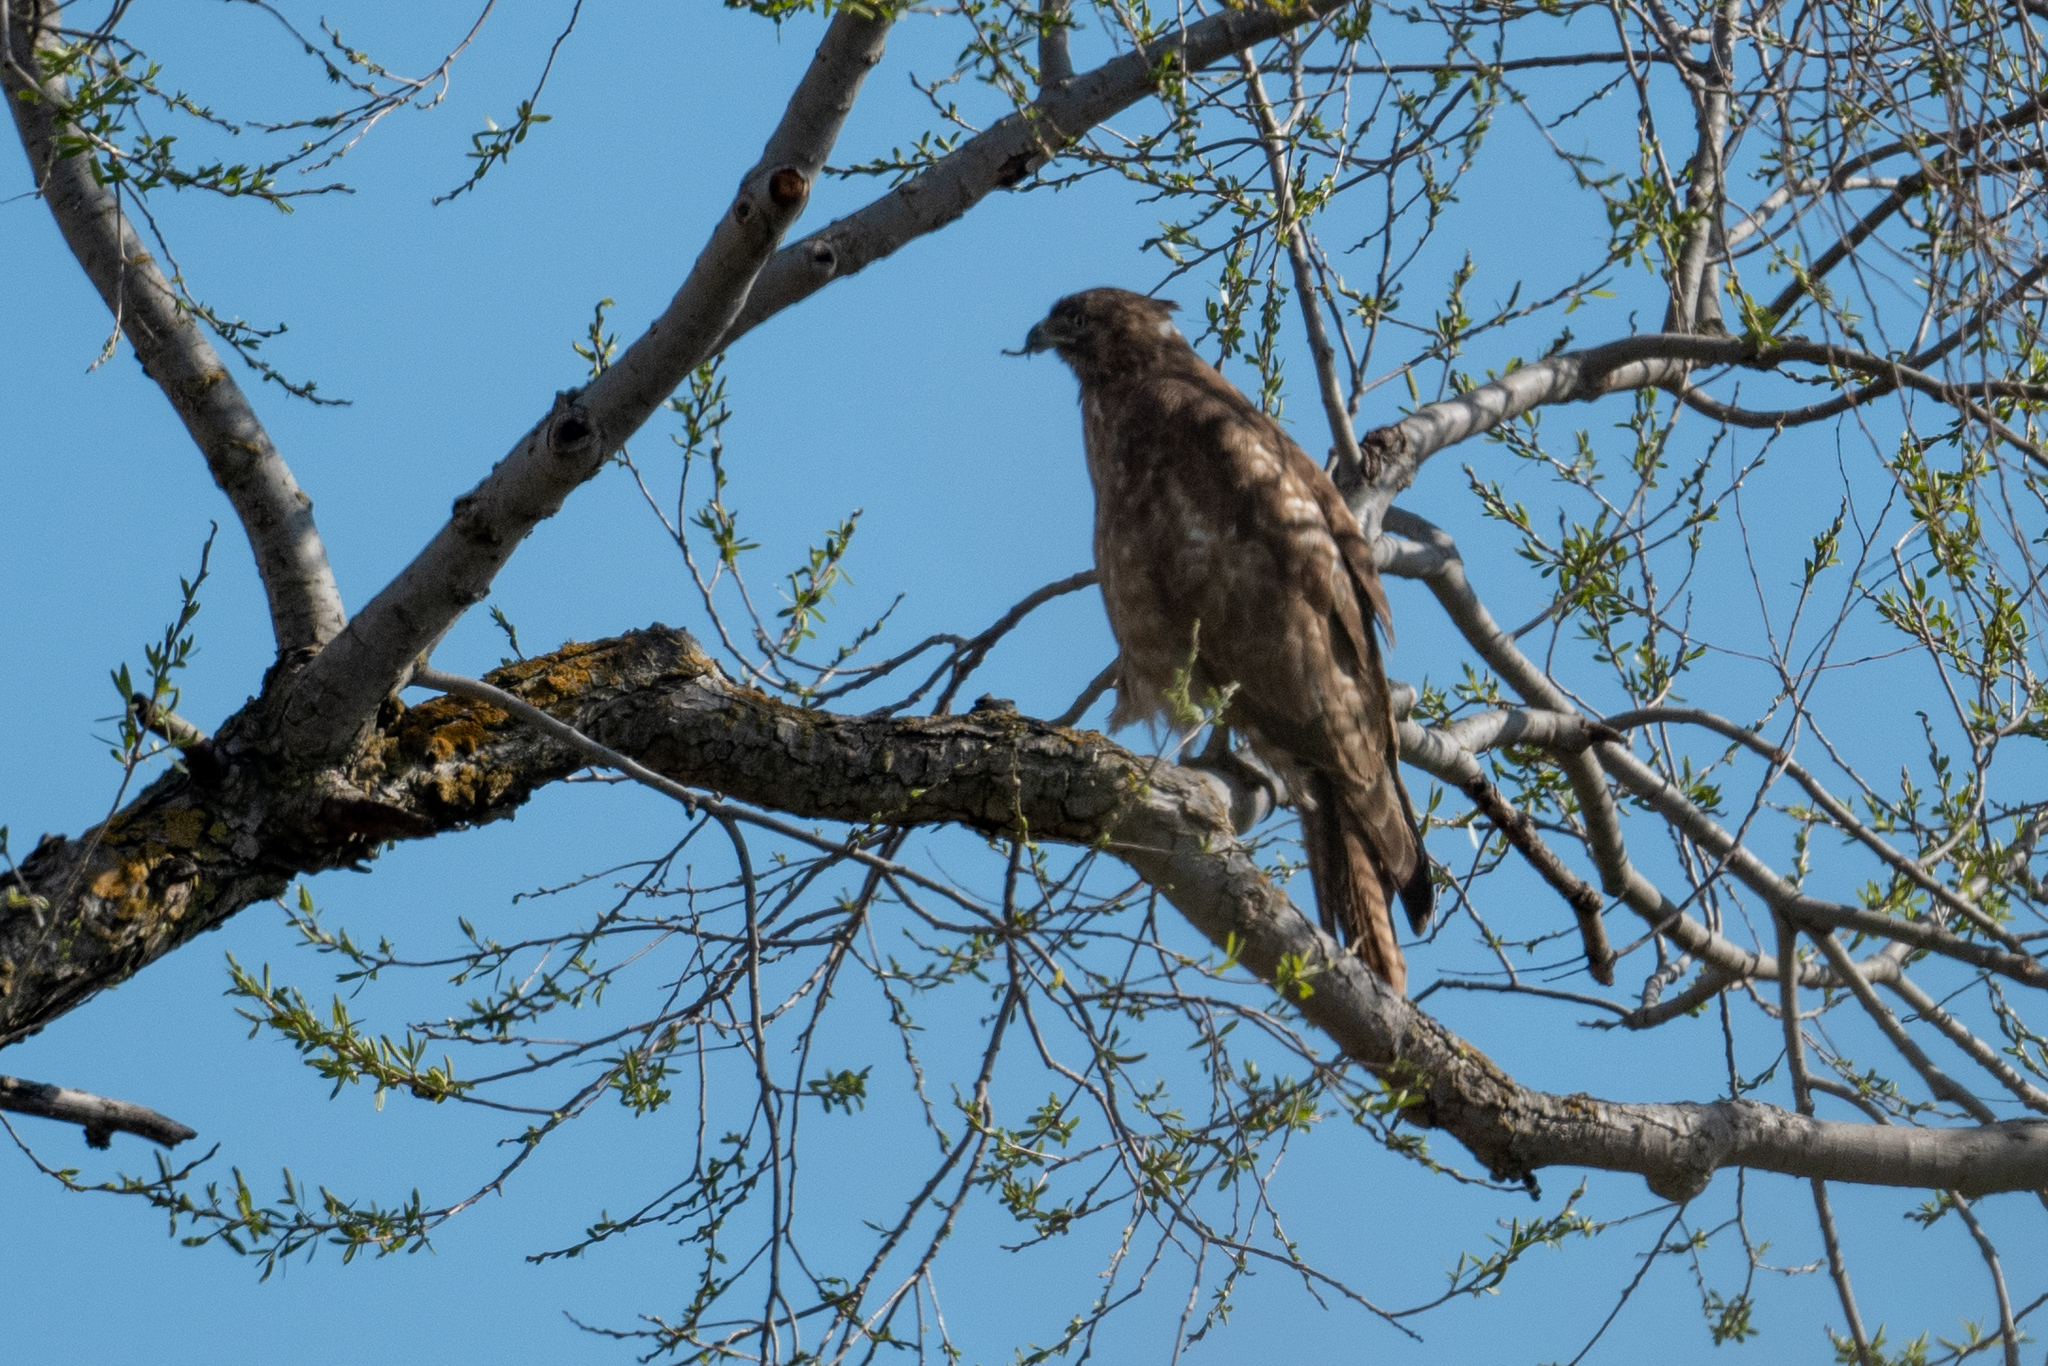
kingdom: Animalia
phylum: Chordata
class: Aves
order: Accipitriformes
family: Accipitridae
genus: Buteo
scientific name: Buteo jamaicensis
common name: Red-tailed hawk
